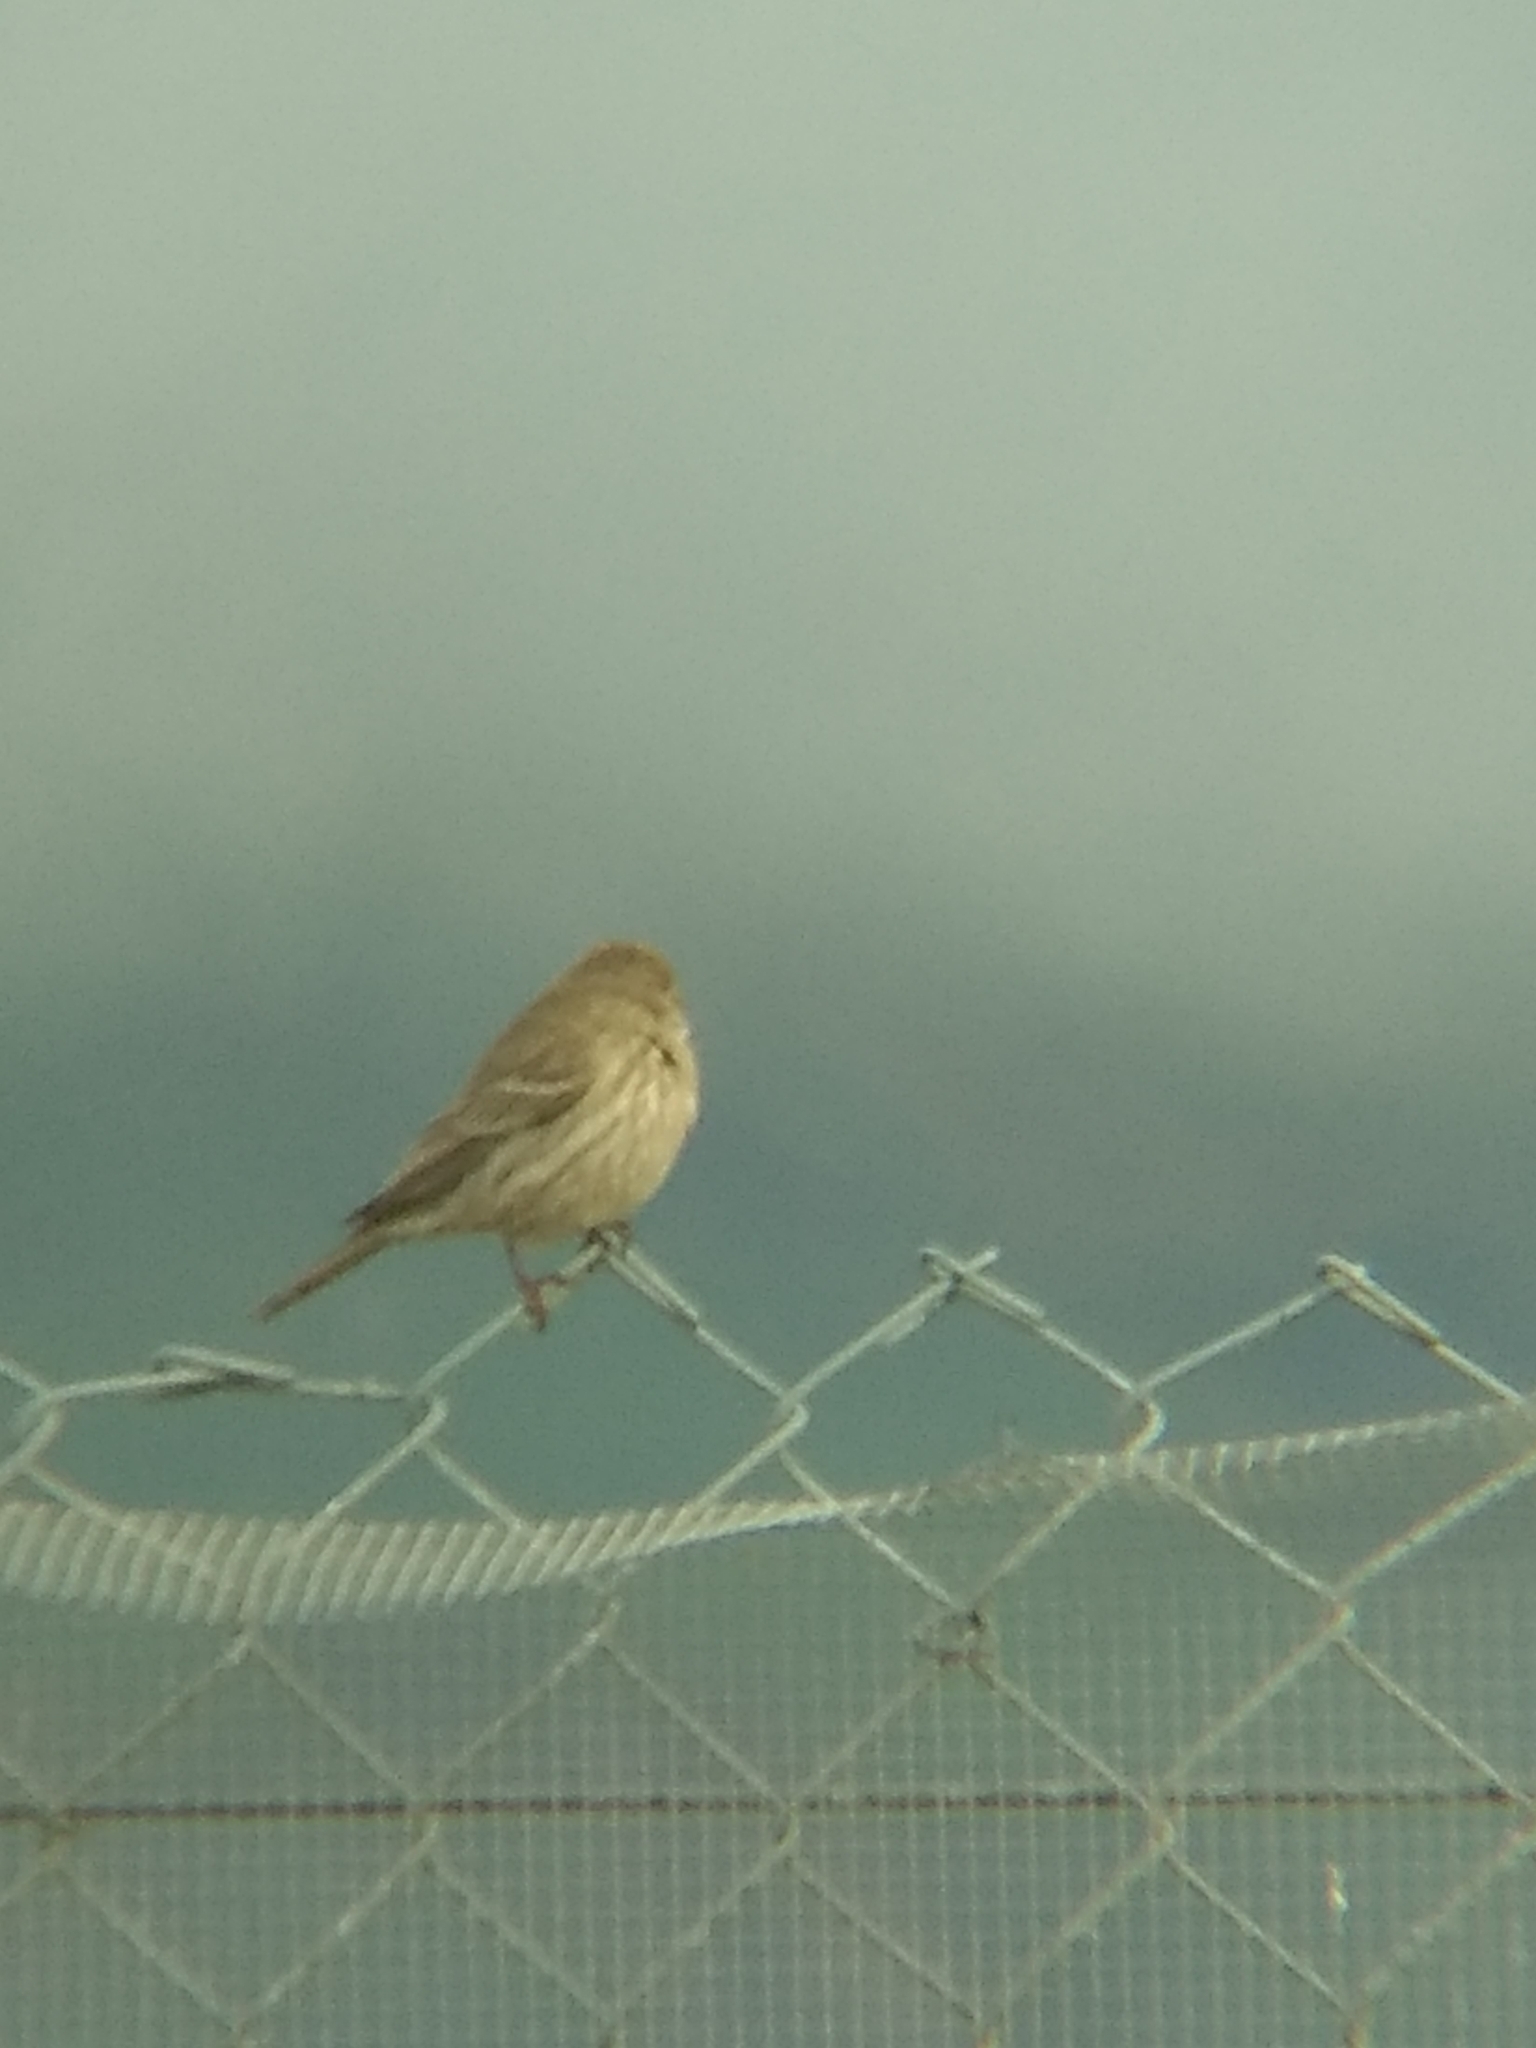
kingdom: Animalia
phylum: Chordata
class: Aves
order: Passeriformes
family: Fringillidae
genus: Haemorhous
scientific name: Haemorhous mexicanus
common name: House finch
